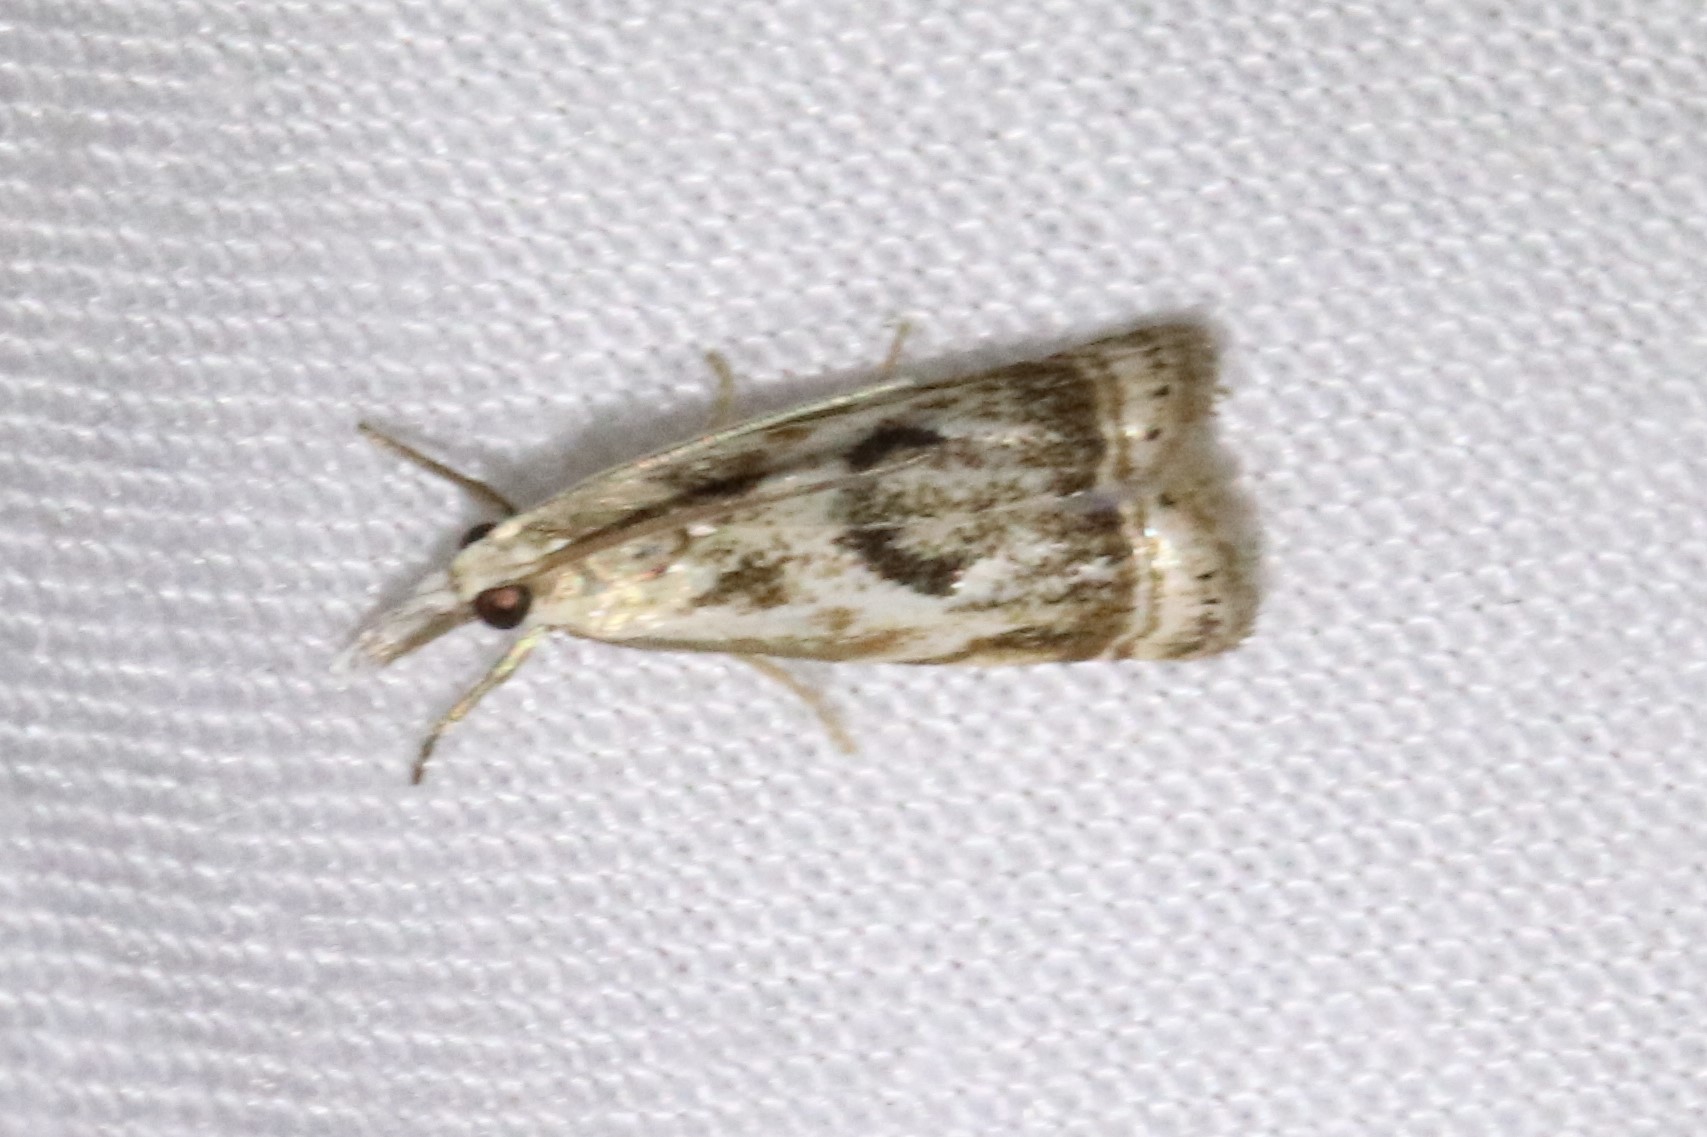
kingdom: Animalia
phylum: Arthropoda
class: Insecta
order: Lepidoptera
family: Crambidae
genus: Microcrambus
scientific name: Microcrambus elegans
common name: Elegant grass-veneer
